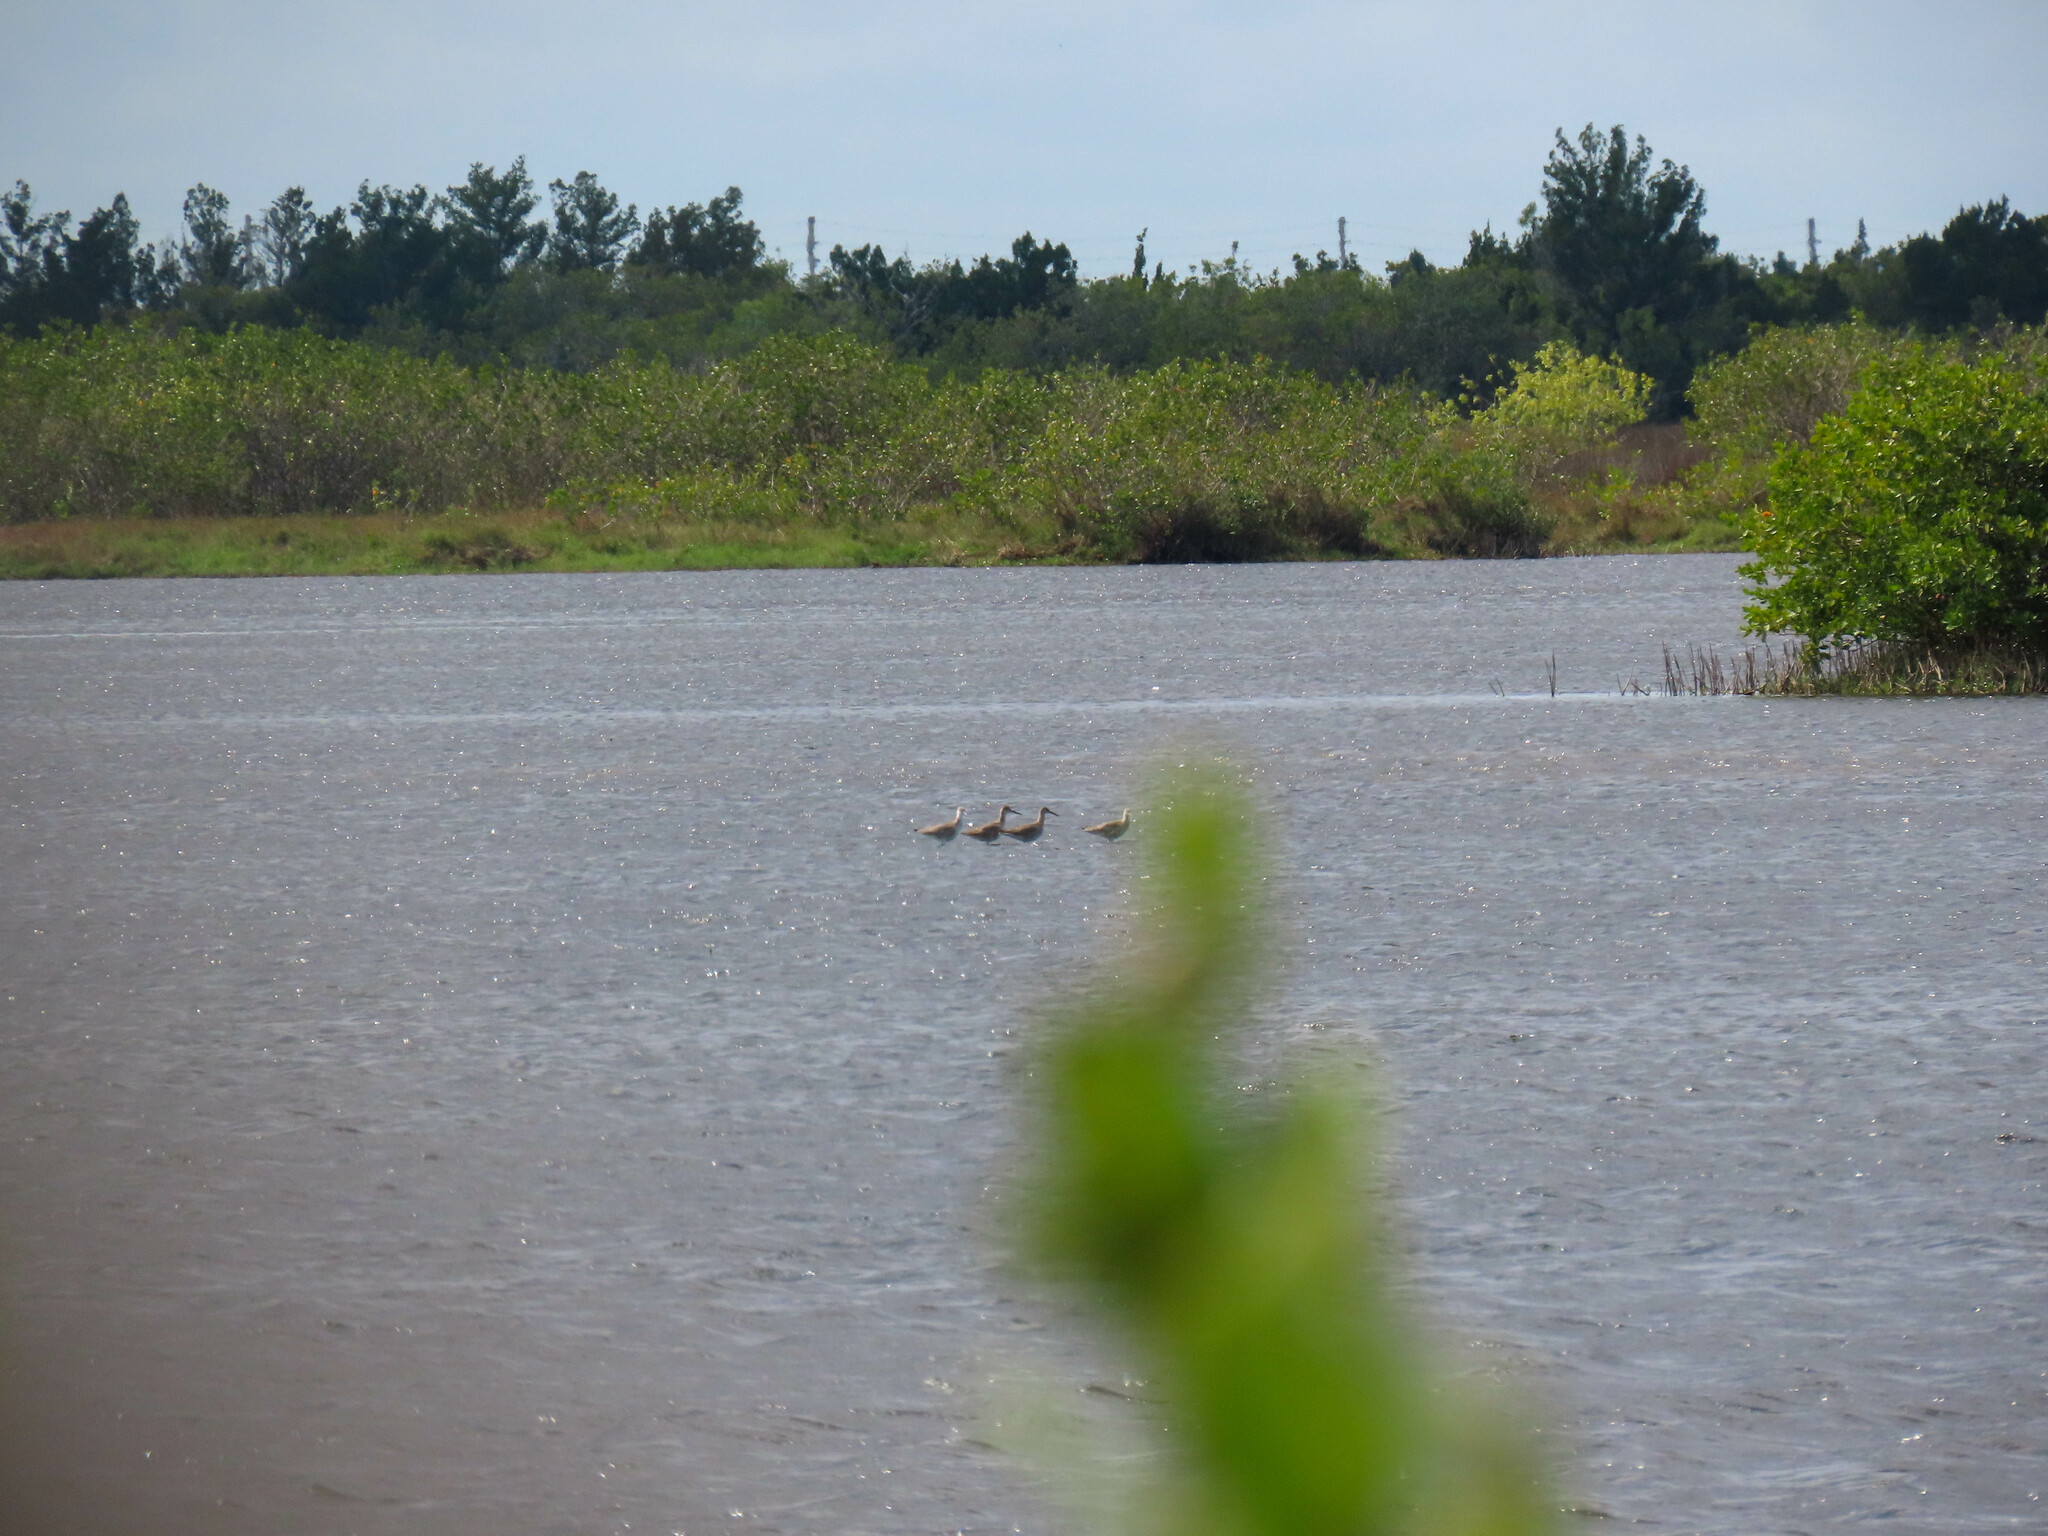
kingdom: Animalia
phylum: Chordata
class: Aves
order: Charadriiformes
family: Scolopacidae
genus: Tringa
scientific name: Tringa semipalmata
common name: Willet
